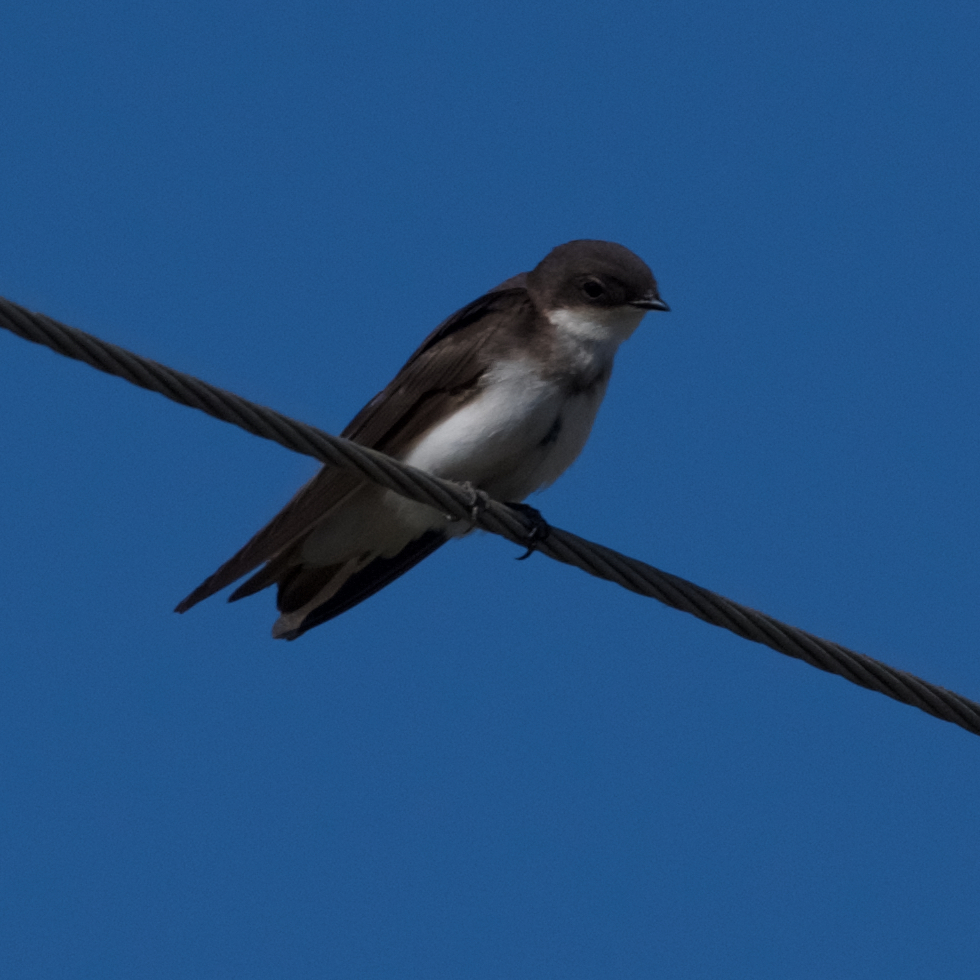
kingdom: Animalia
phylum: Chordata
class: Aves
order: Passeriformes
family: Hirundinidae
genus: Riparia
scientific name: Riparia riparia
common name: Sand martin
